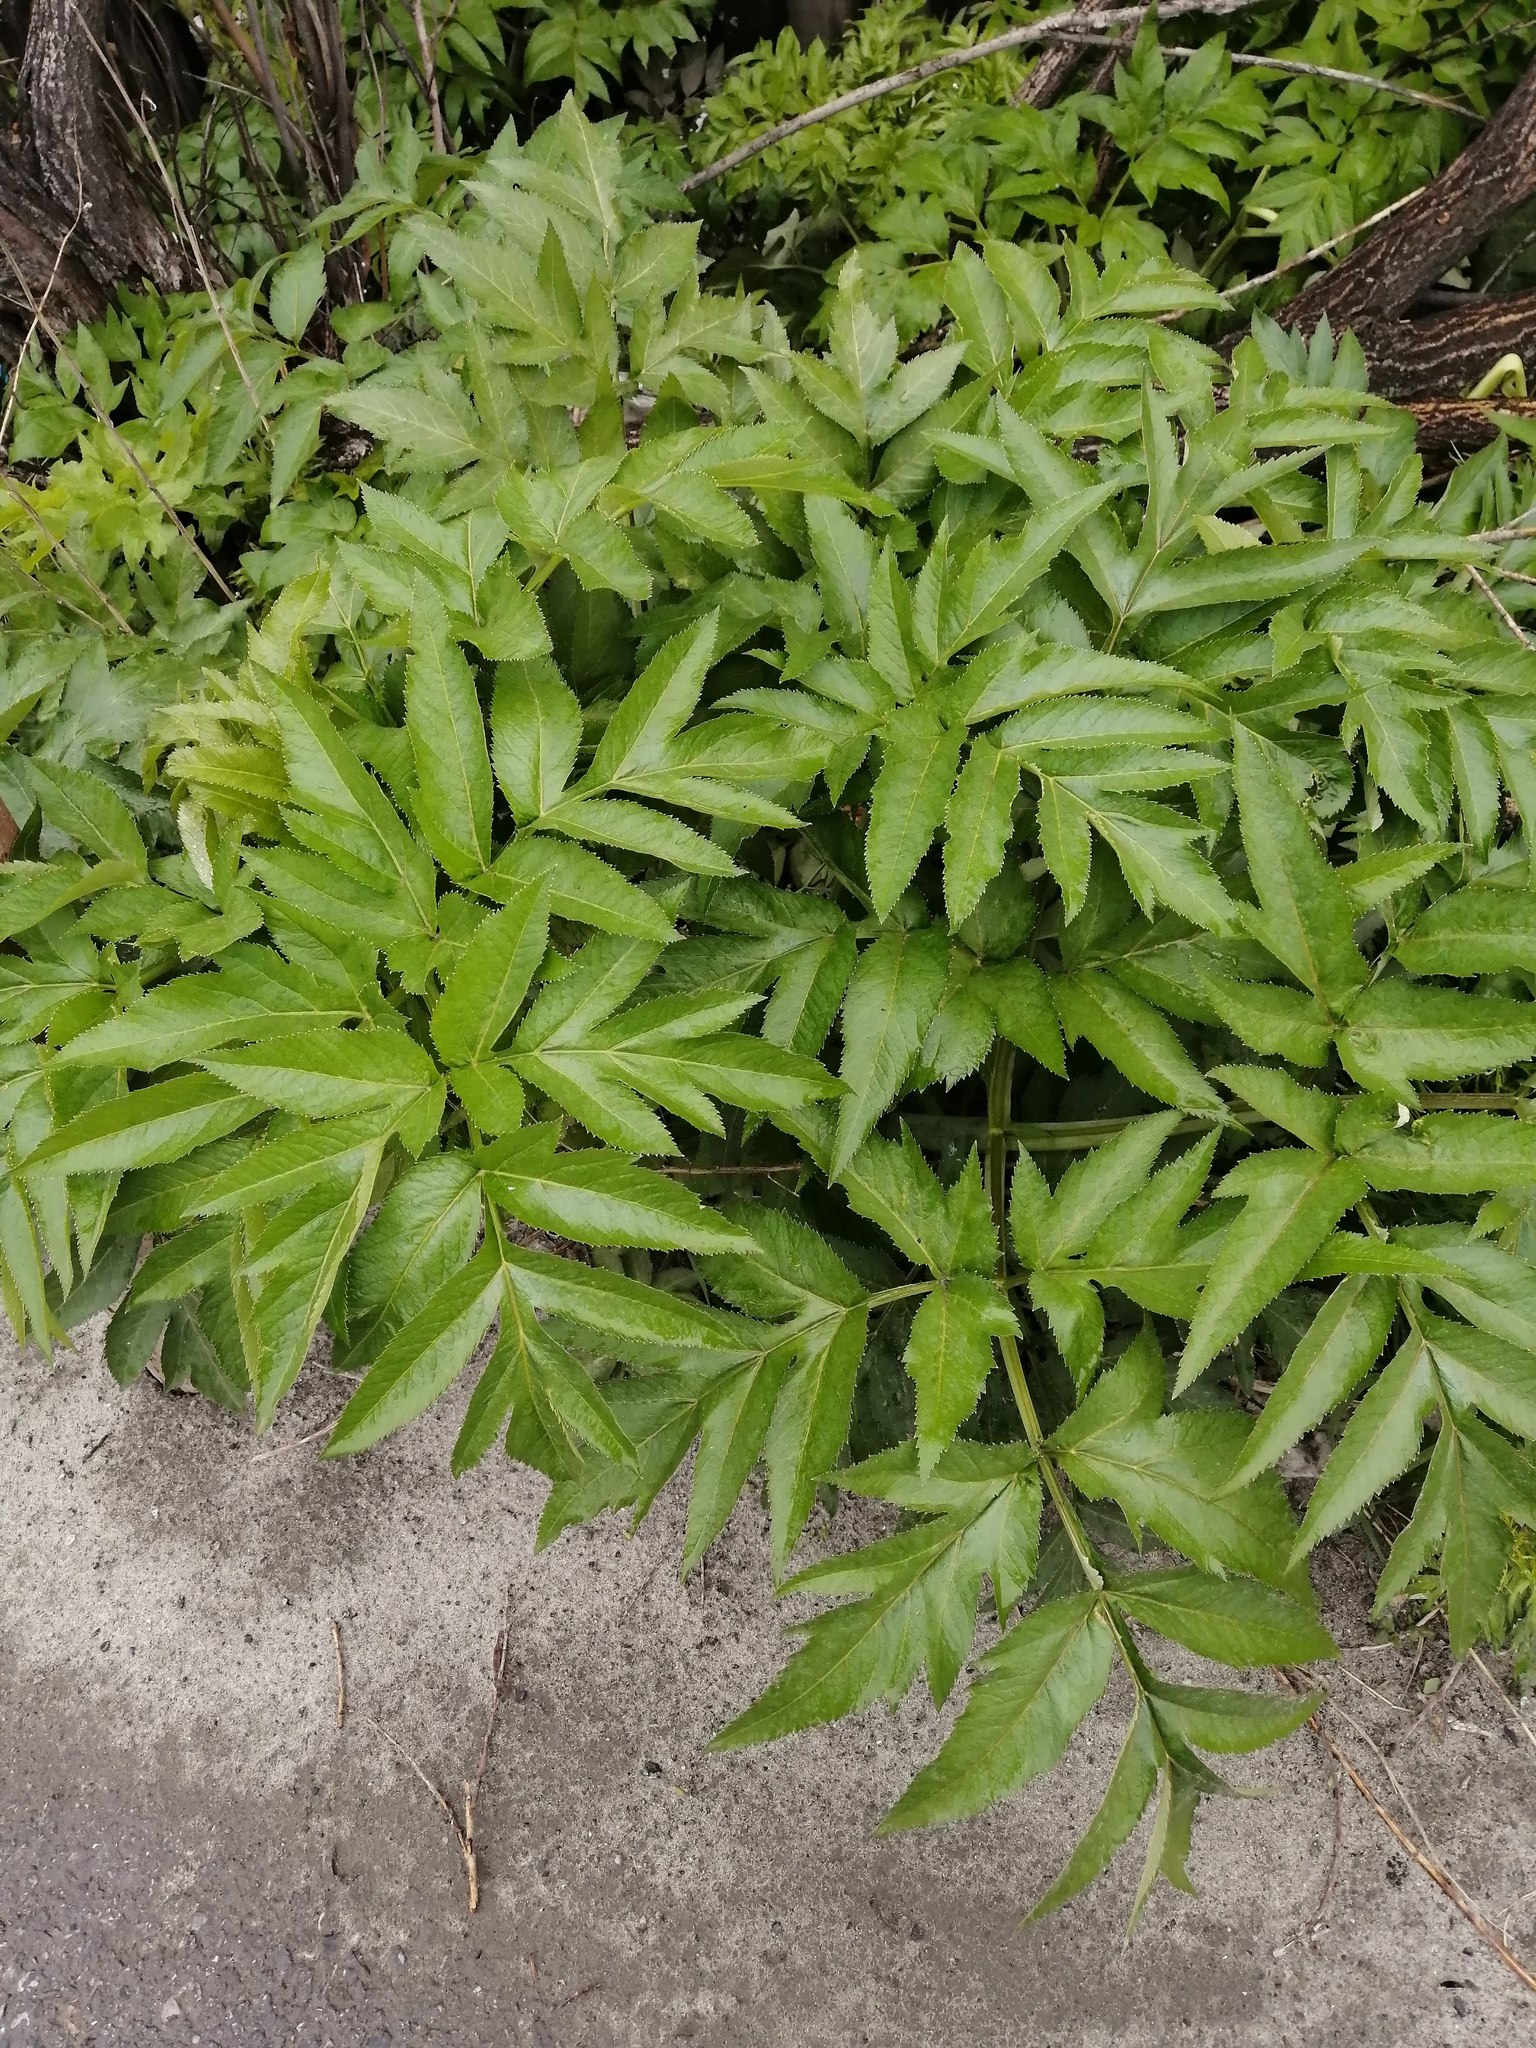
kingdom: Plantae
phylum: Tracheophyta
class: Magnoliopsida
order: Apiales
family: Apiaceae
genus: Angelica
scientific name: Angelica decurrens
